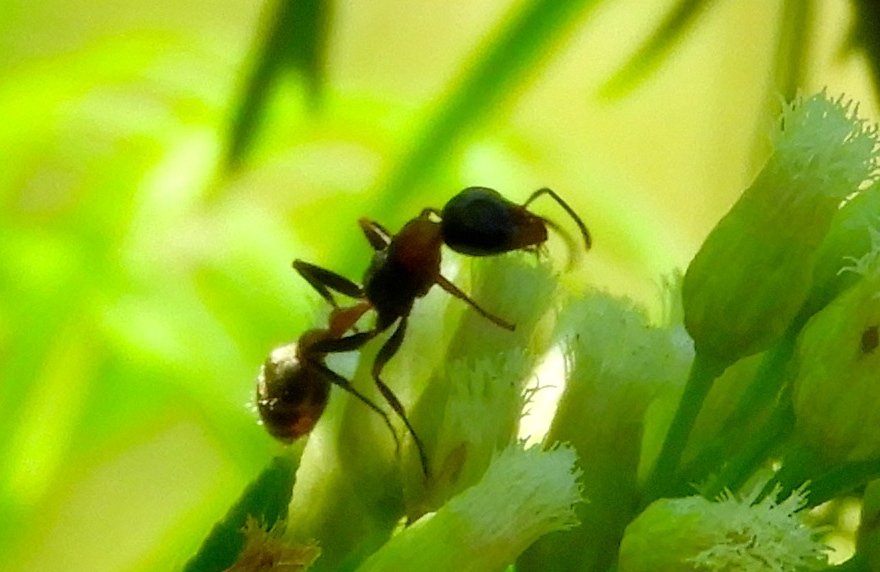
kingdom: Animalia
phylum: Arthropoda
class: Insecta
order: Hymenoptera
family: Formicidae
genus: Pseudomyrmex
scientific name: Pseudomyrmex gracilis
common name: Graceful twig ant
